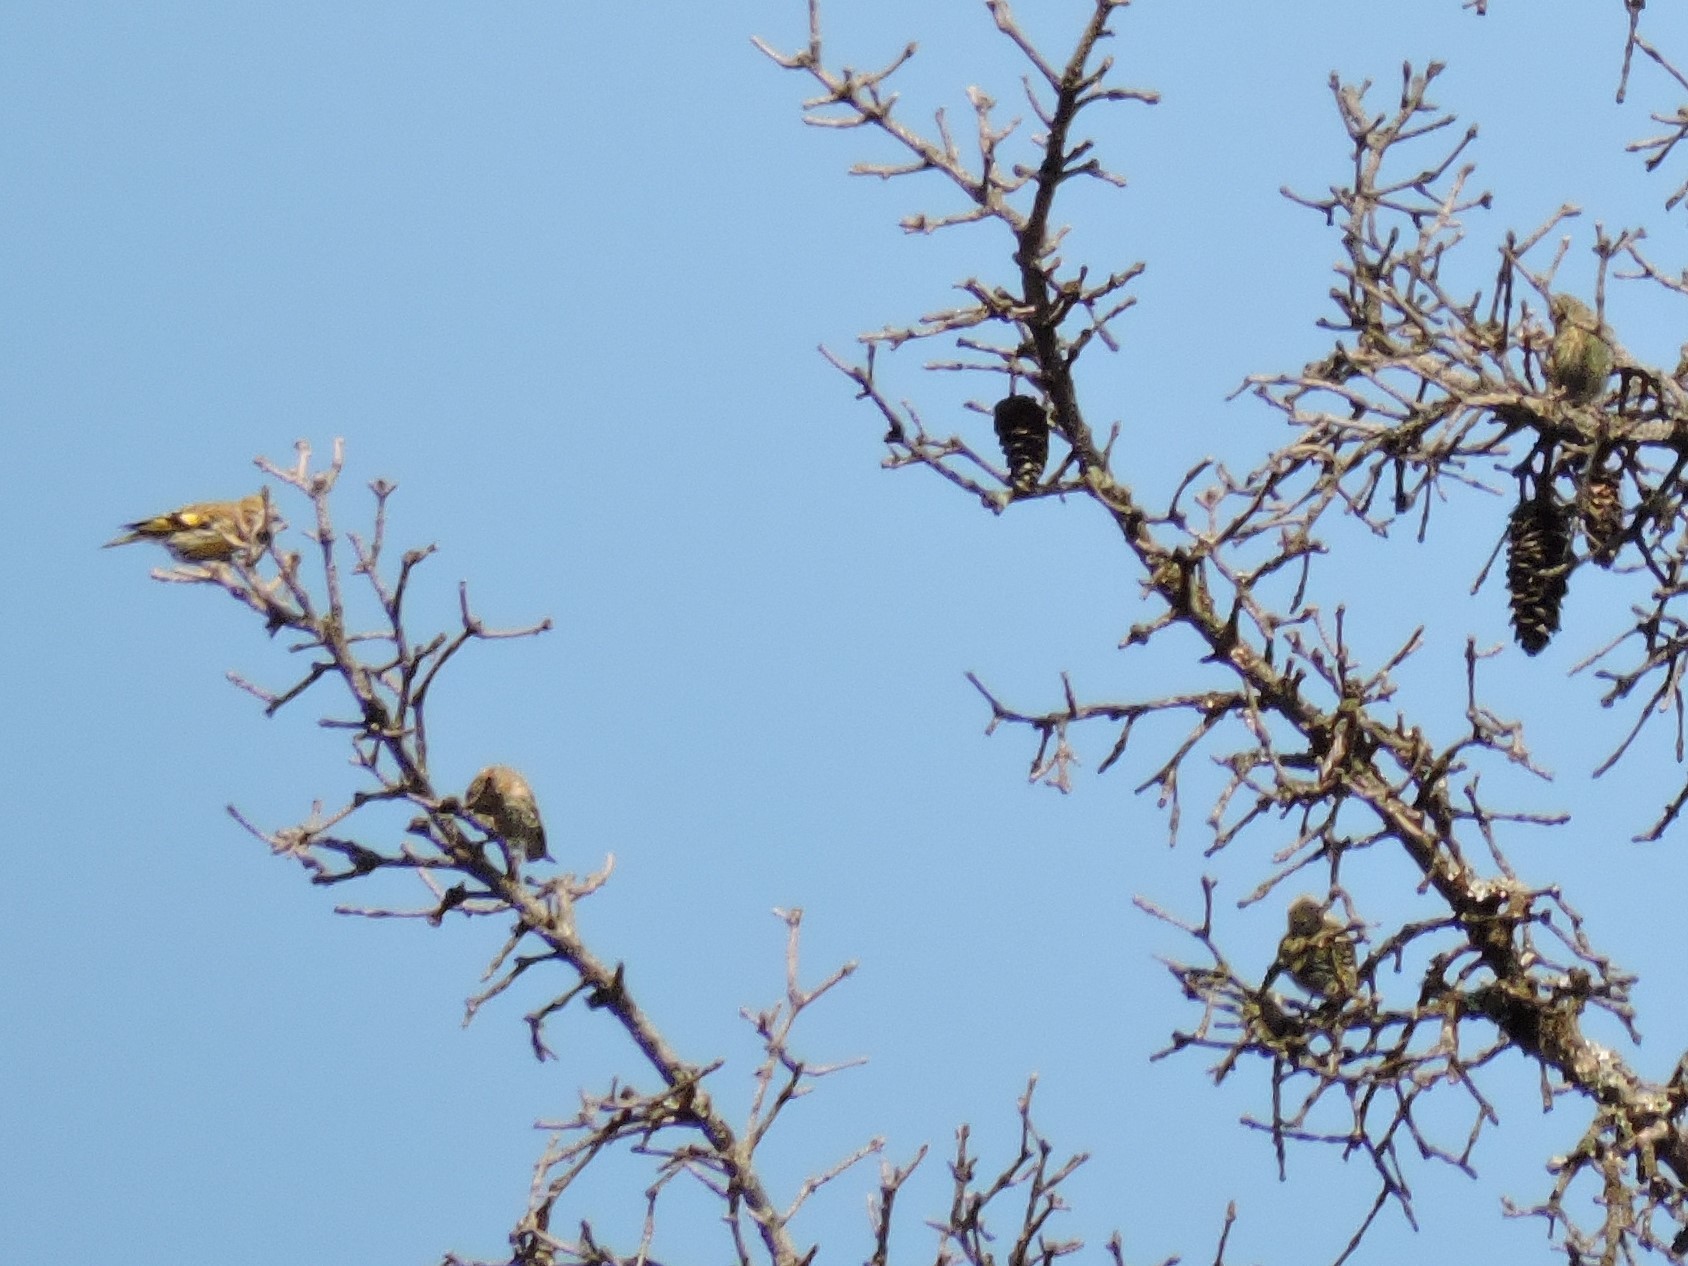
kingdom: Animalia
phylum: Chordata
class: Aves
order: Passeriformes
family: Fringillidae
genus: Spinus
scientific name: Spinus spinus
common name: Eurasian siskin
